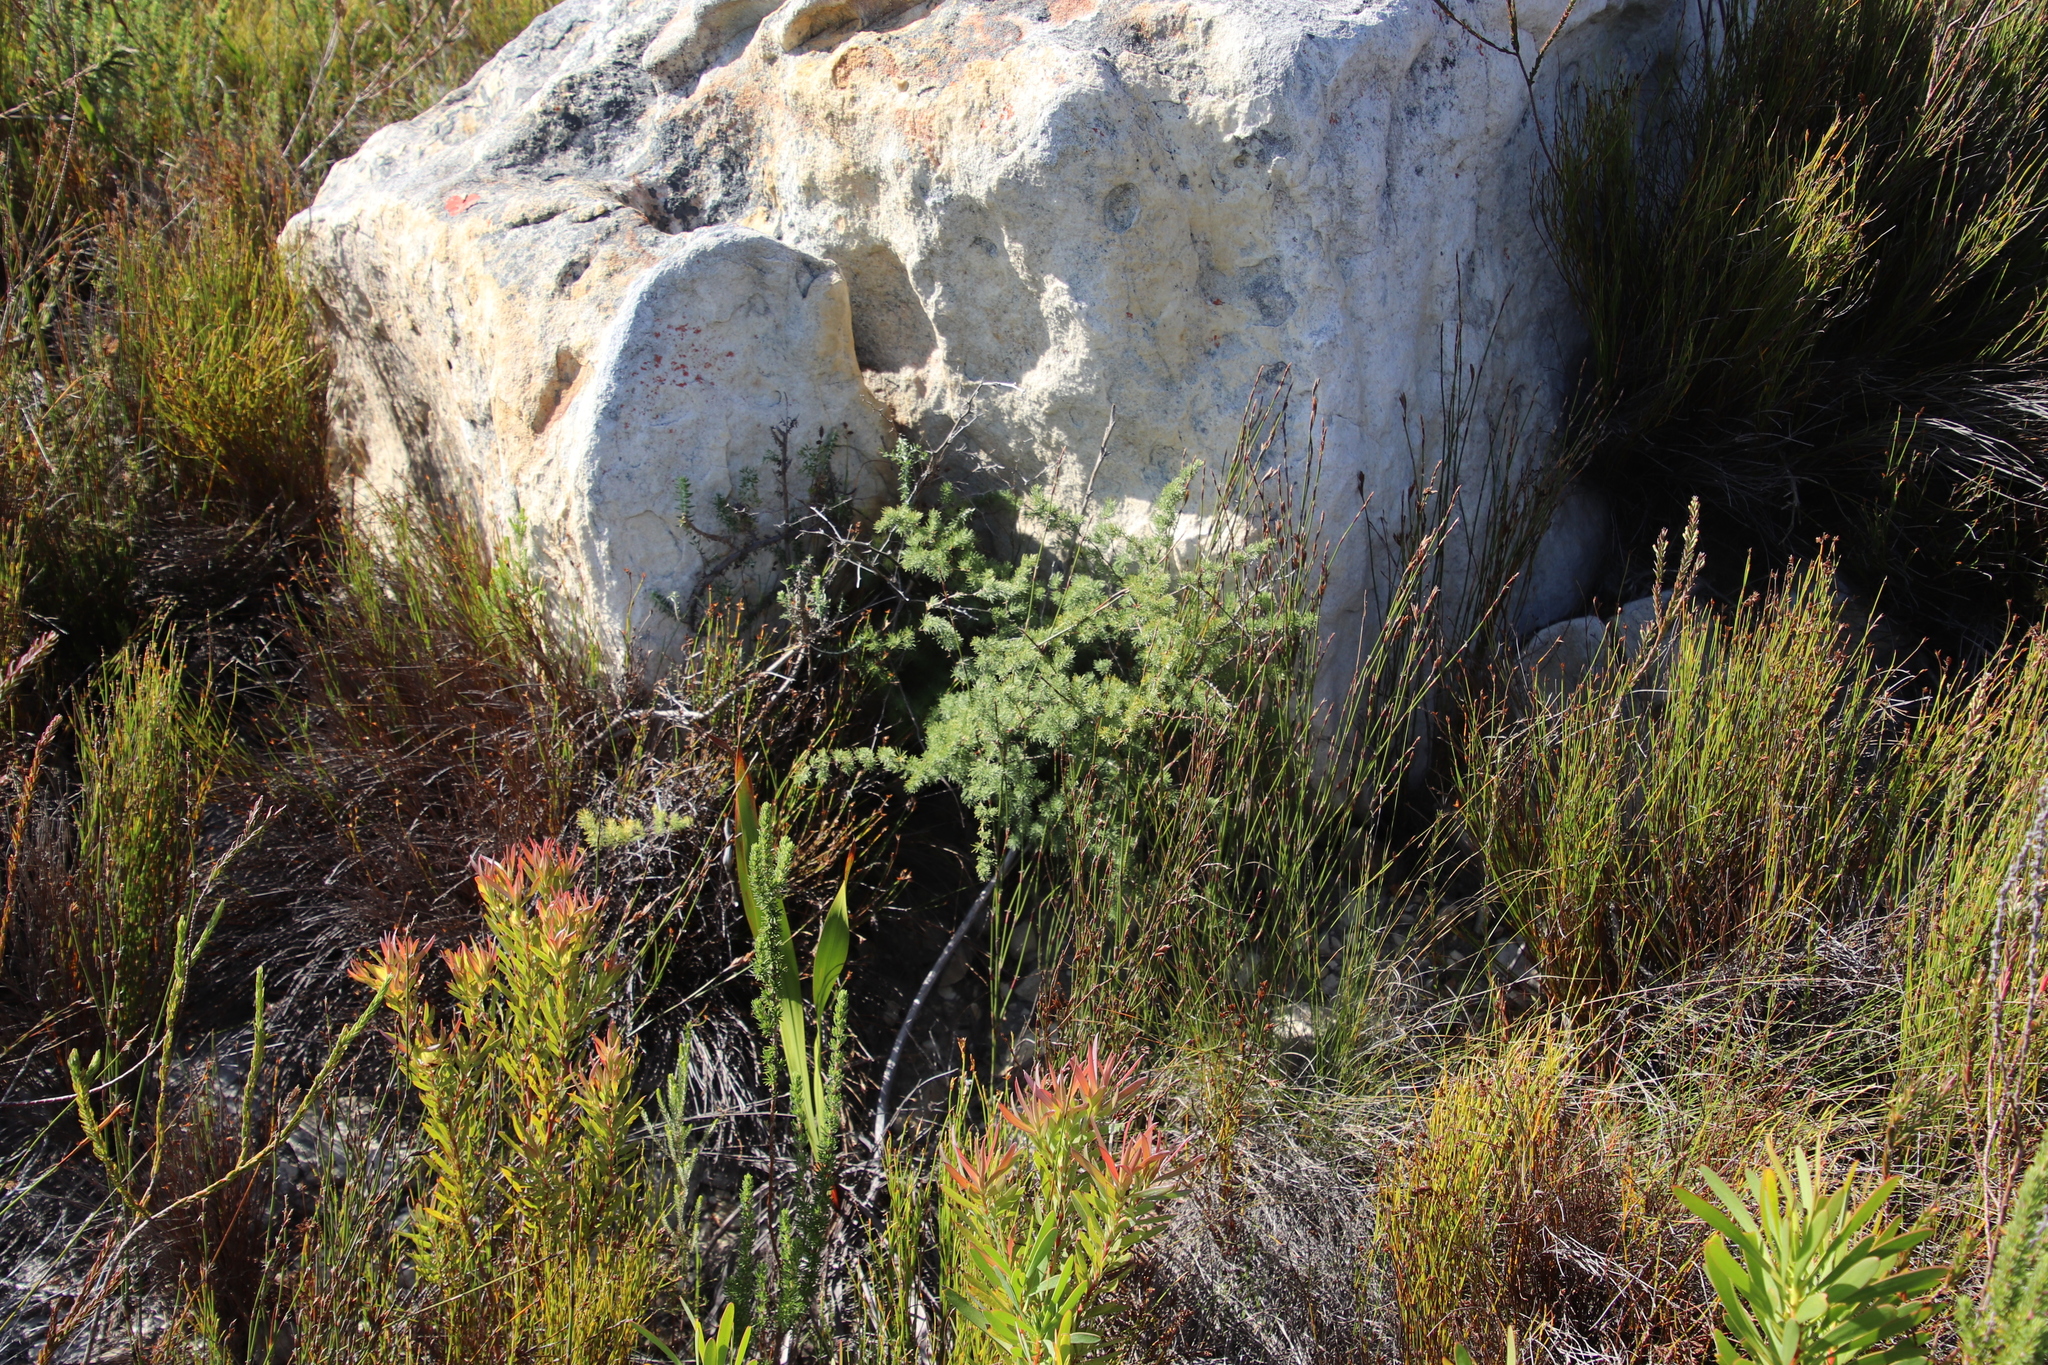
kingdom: Plantae
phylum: Tracheophyta
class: Liliopsida
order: Asparagales
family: Asparagaceae
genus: Asparagus
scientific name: Asparagus rubicundus
